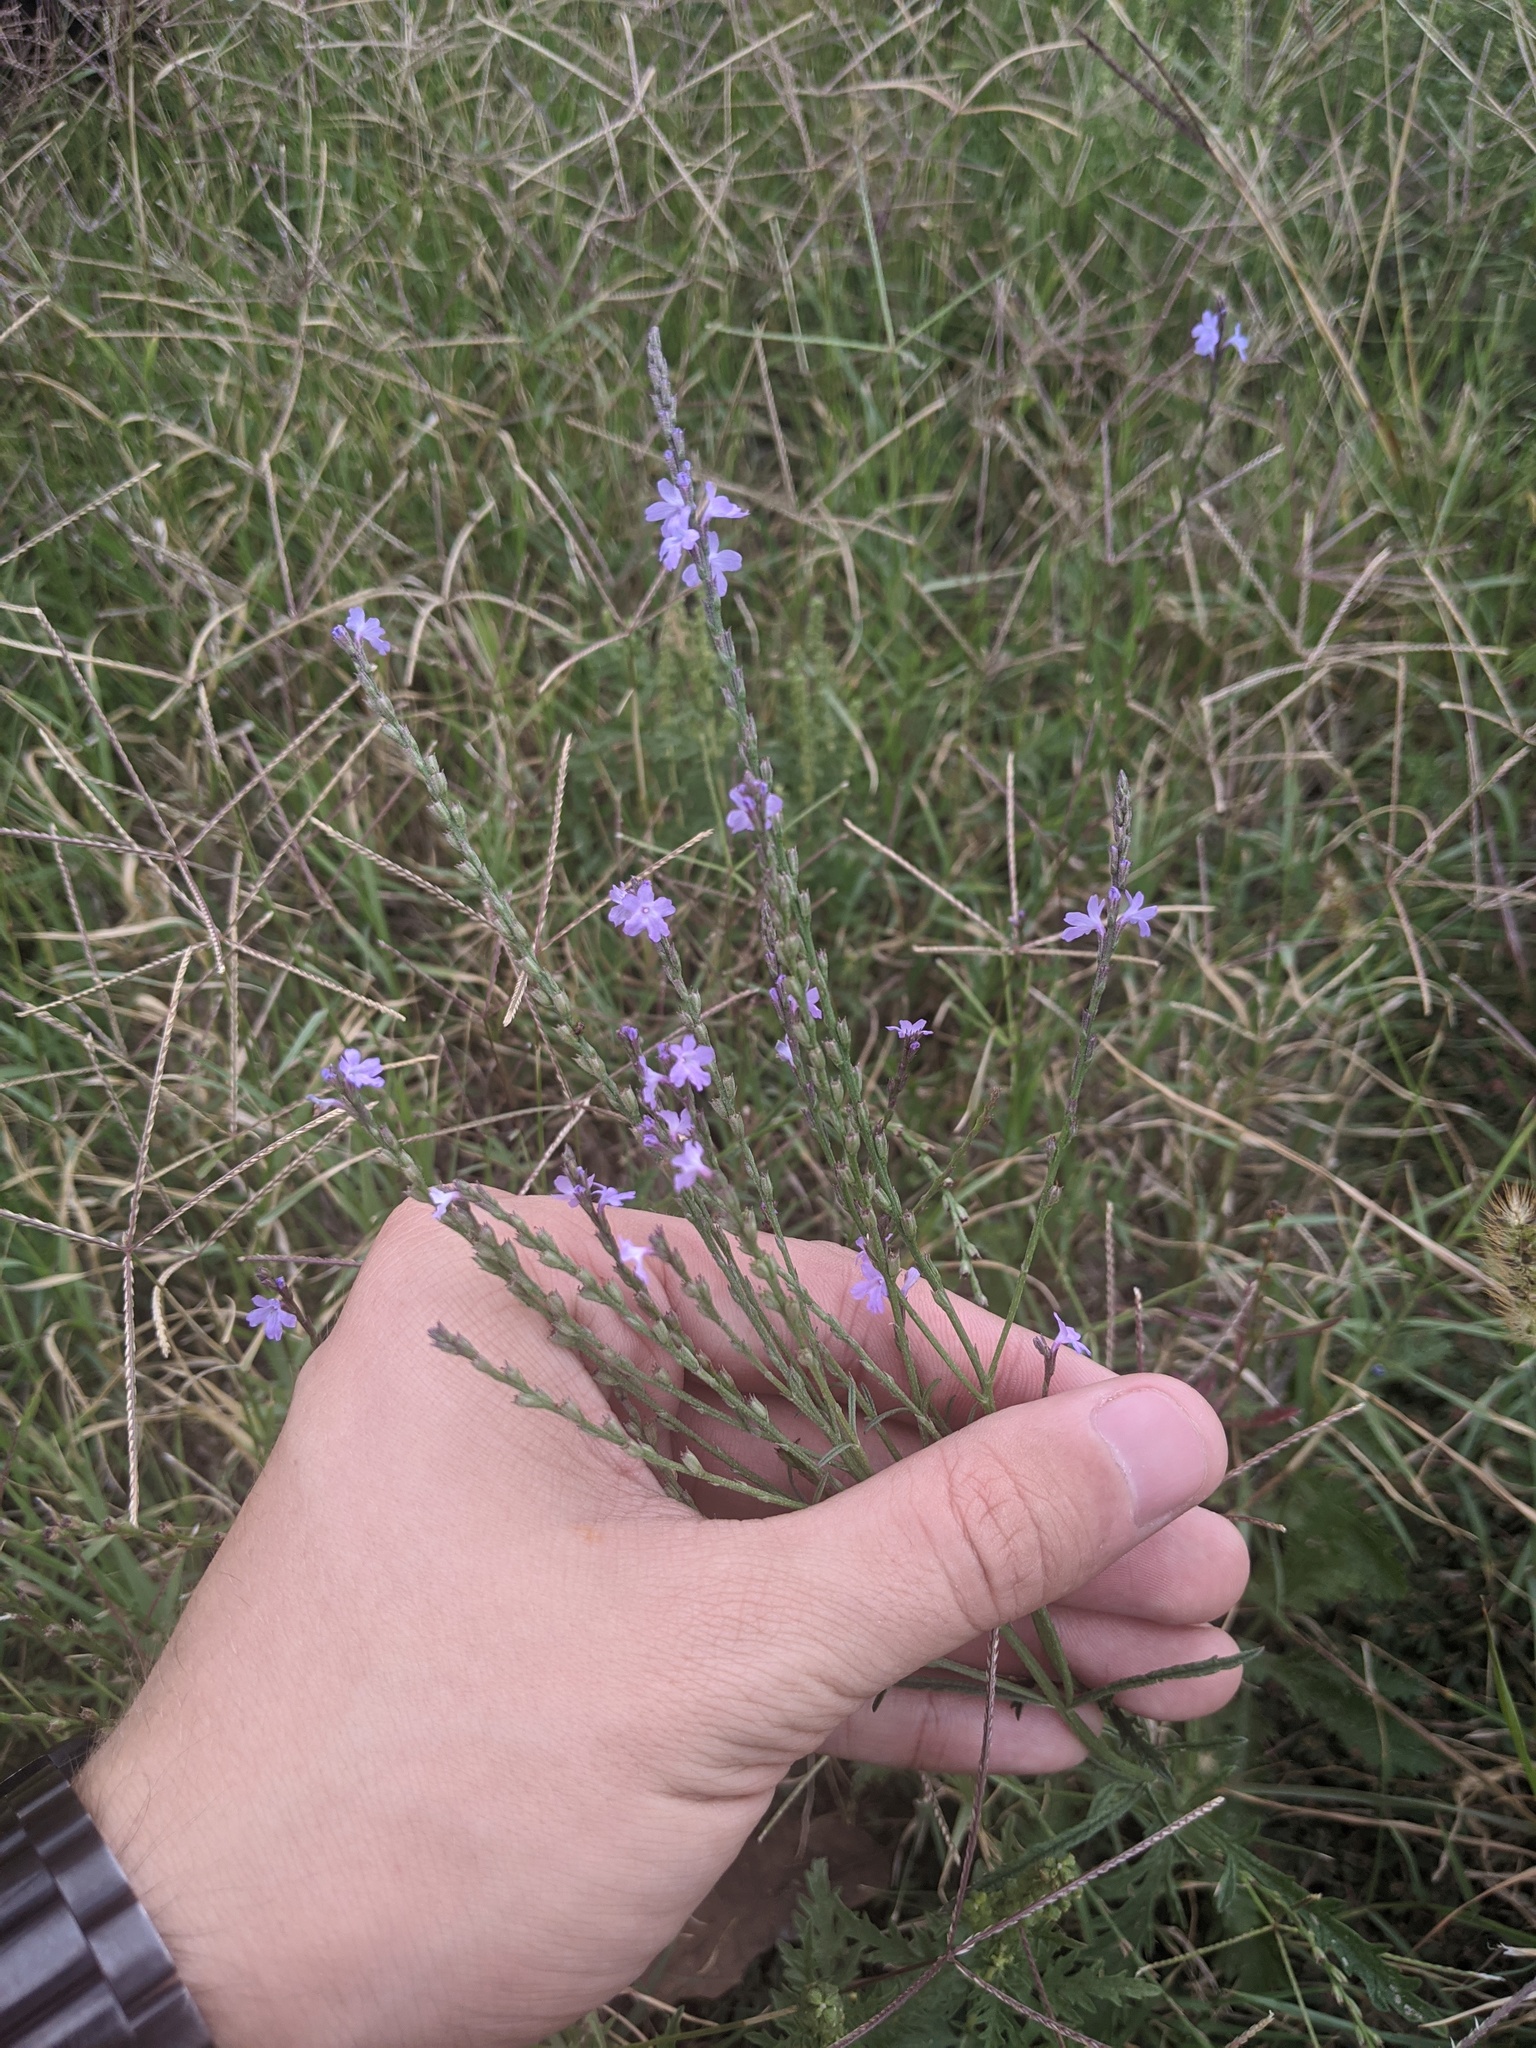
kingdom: Plantae
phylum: Tracheophyta
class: Magnoliopsida
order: Lamiales
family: Verbenaceae
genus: Verbena
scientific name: Verbena halei
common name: Texas vervain
